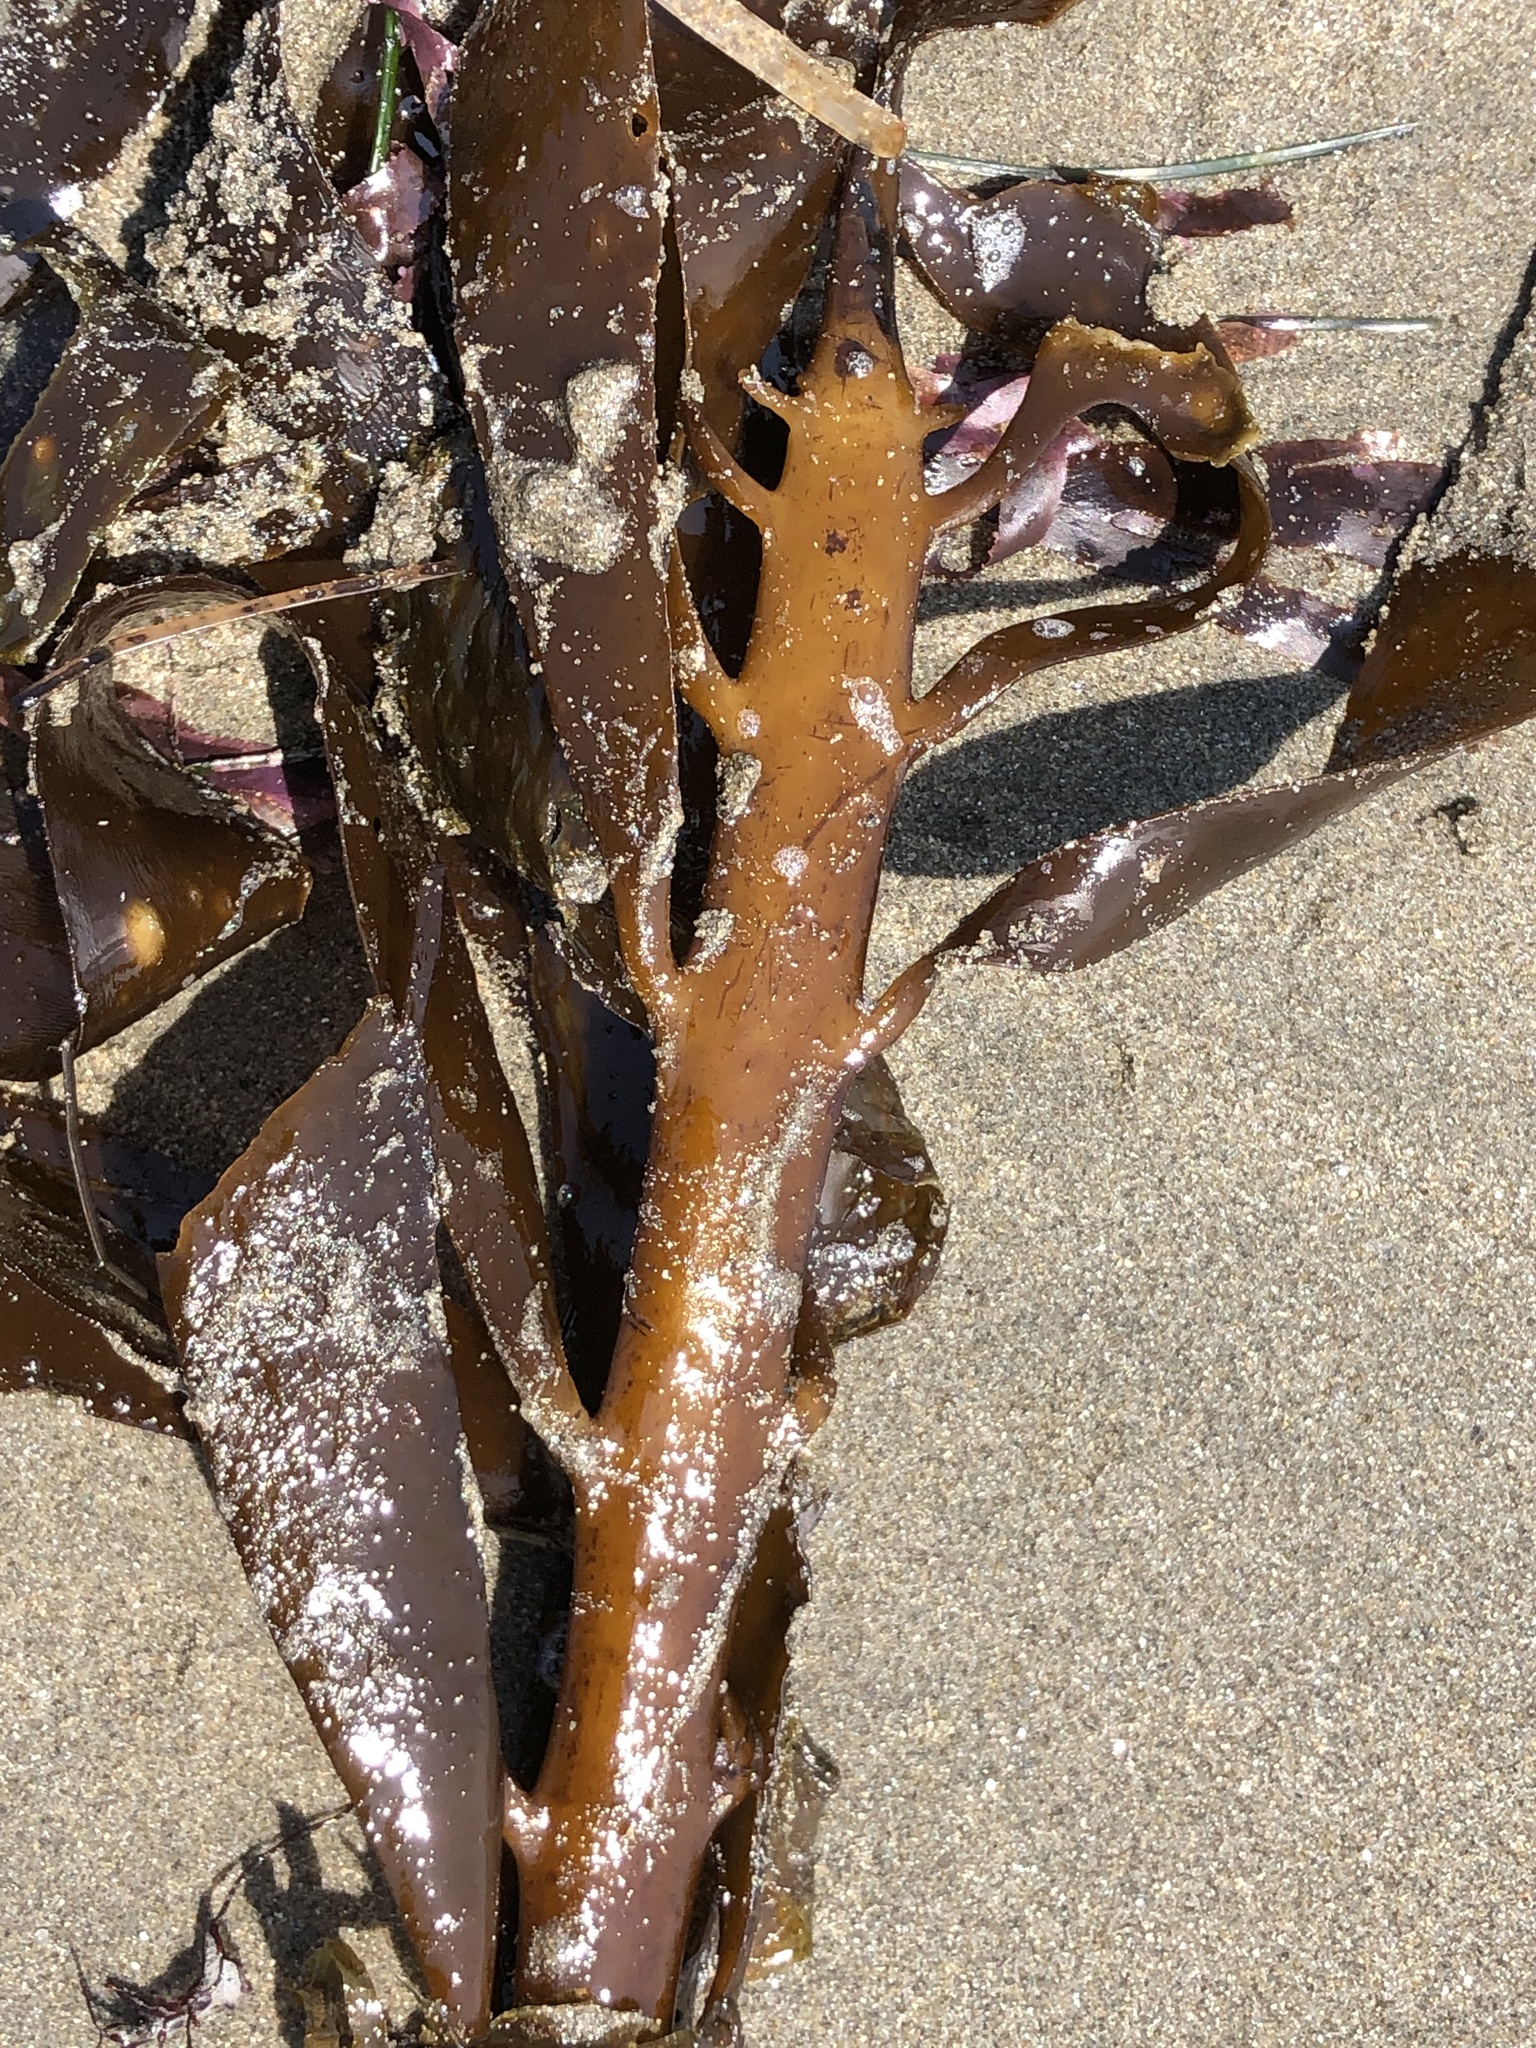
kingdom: Chromista
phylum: Ochrophyta
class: Phaeophyceae
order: Laminariales
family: Alariaceae
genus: Pterygophora
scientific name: Pterygophora californica
